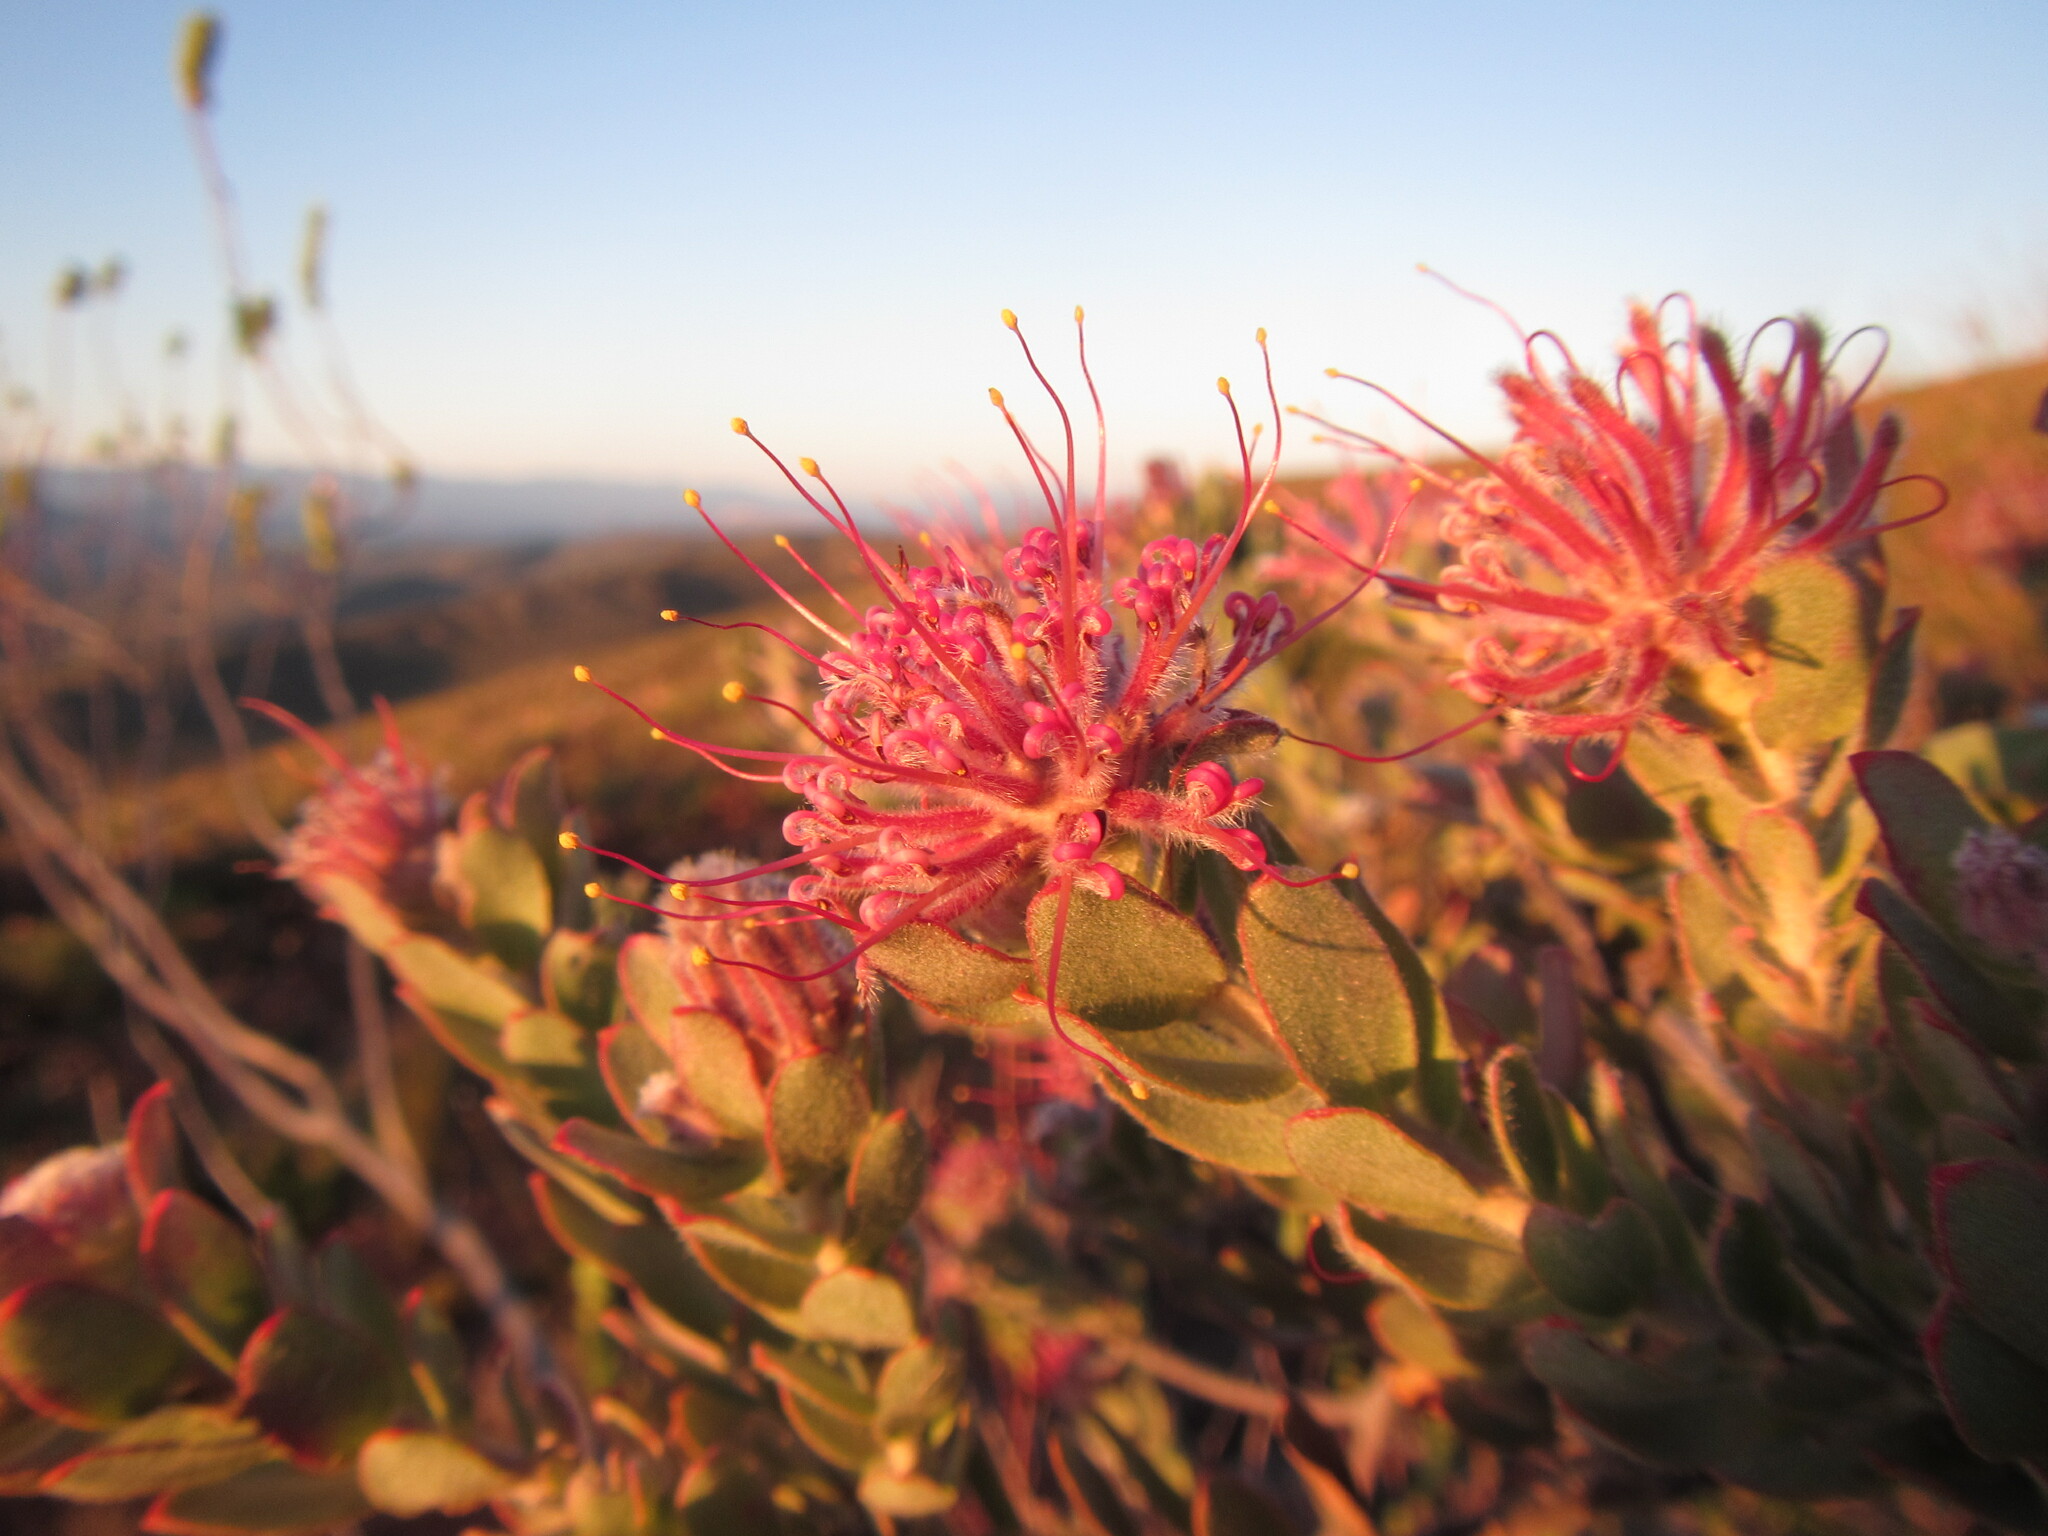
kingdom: Plantae
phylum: Tracheophyta
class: Magnoliopsida
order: Proteales
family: Proteaceae
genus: Leucospermum
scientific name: Leucospermum calligerum
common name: Arid pincushion
